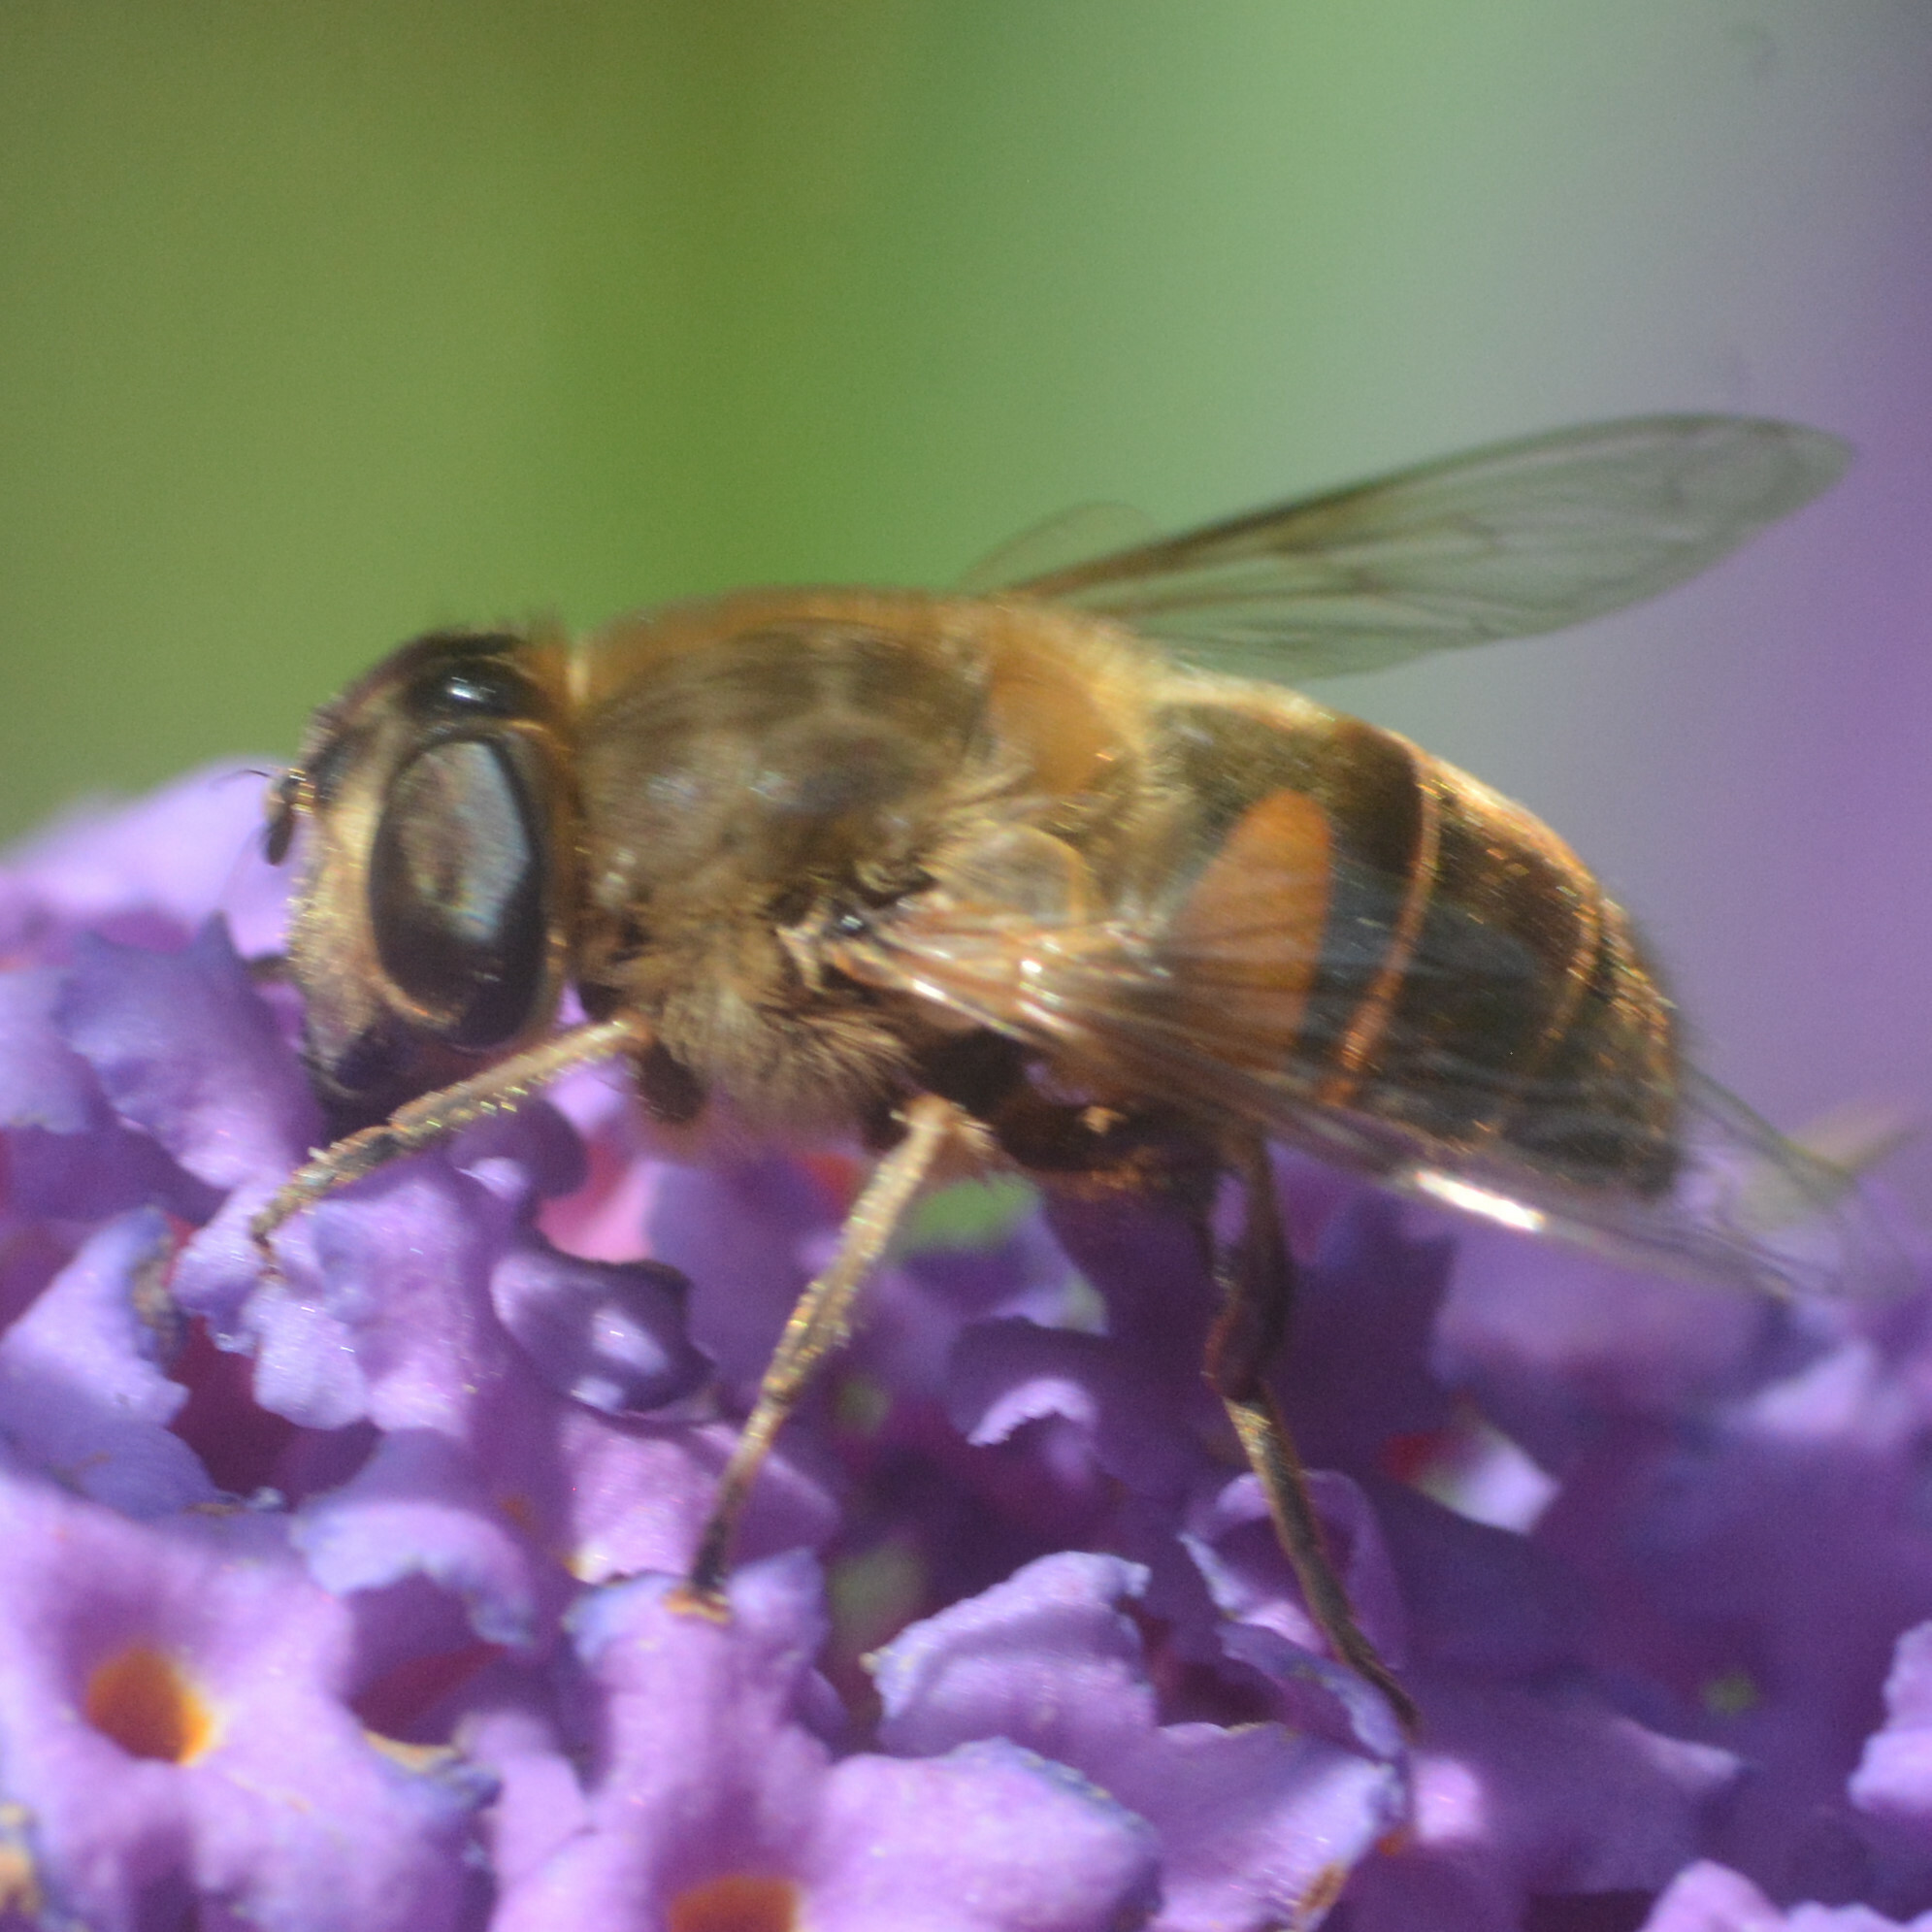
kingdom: Animalia
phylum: Arthropoda
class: Insecta
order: Diptera
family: Syrphidae
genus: Eristalis
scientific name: Eristalis tenax
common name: Drone fly
